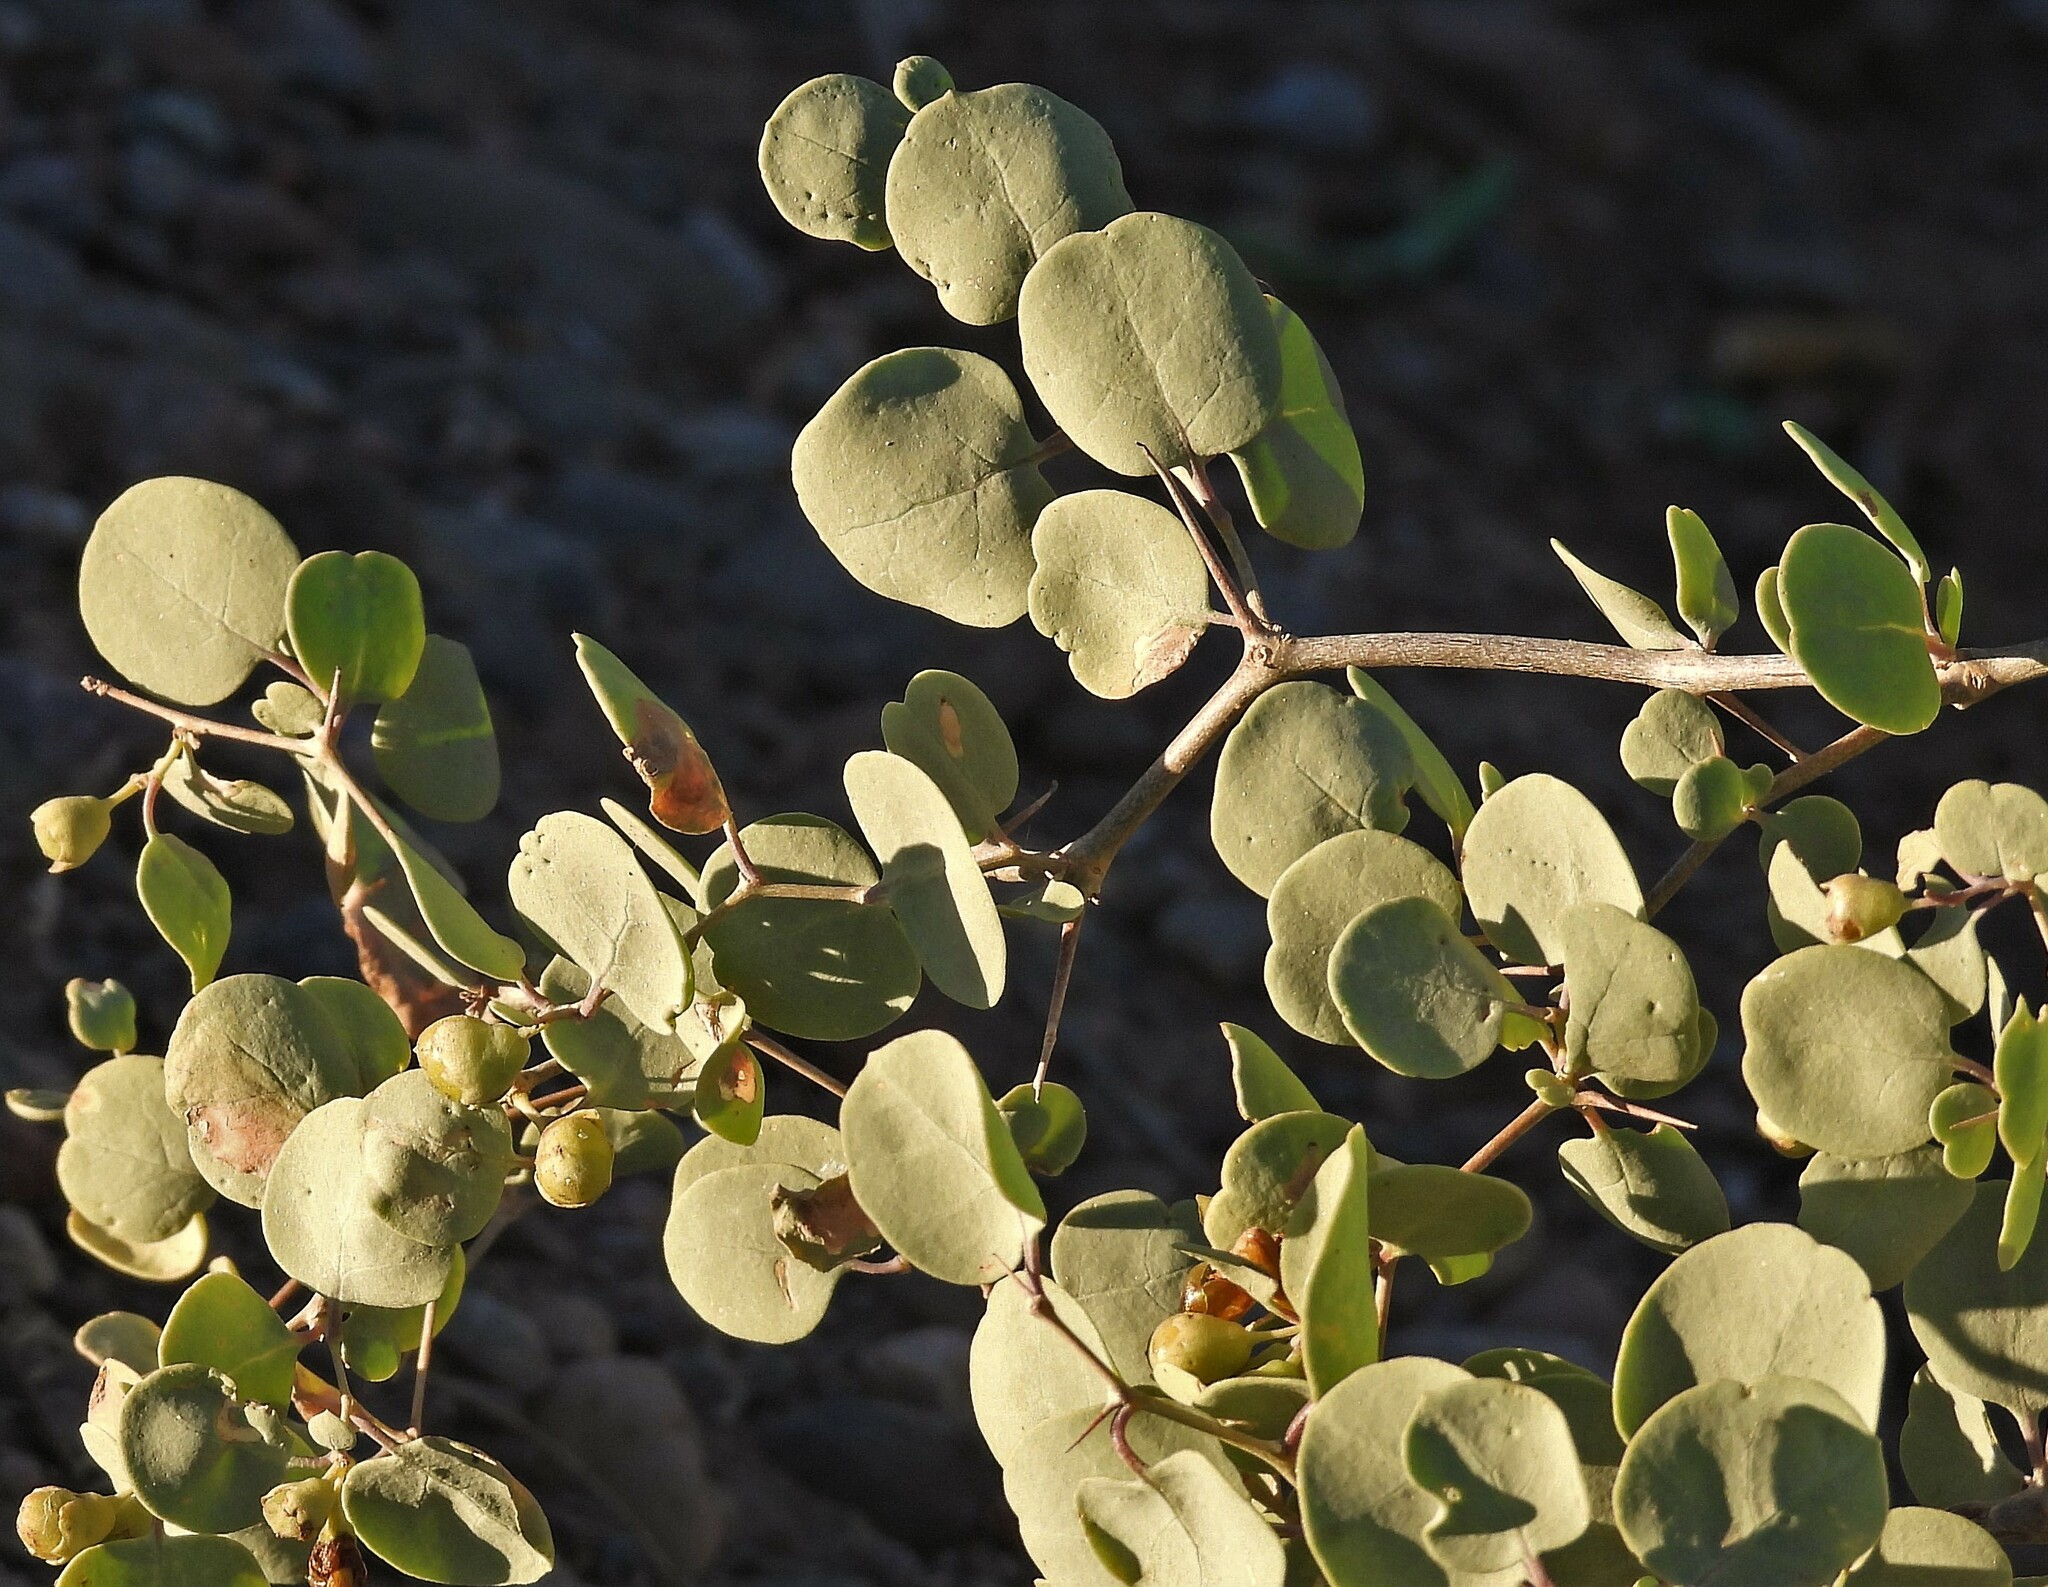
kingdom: Plantae
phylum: Tracheophyta
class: Magnoliopsida
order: Solanales
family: Solanaceae
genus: Lycium
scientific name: Lycium boerhaaviifolium
